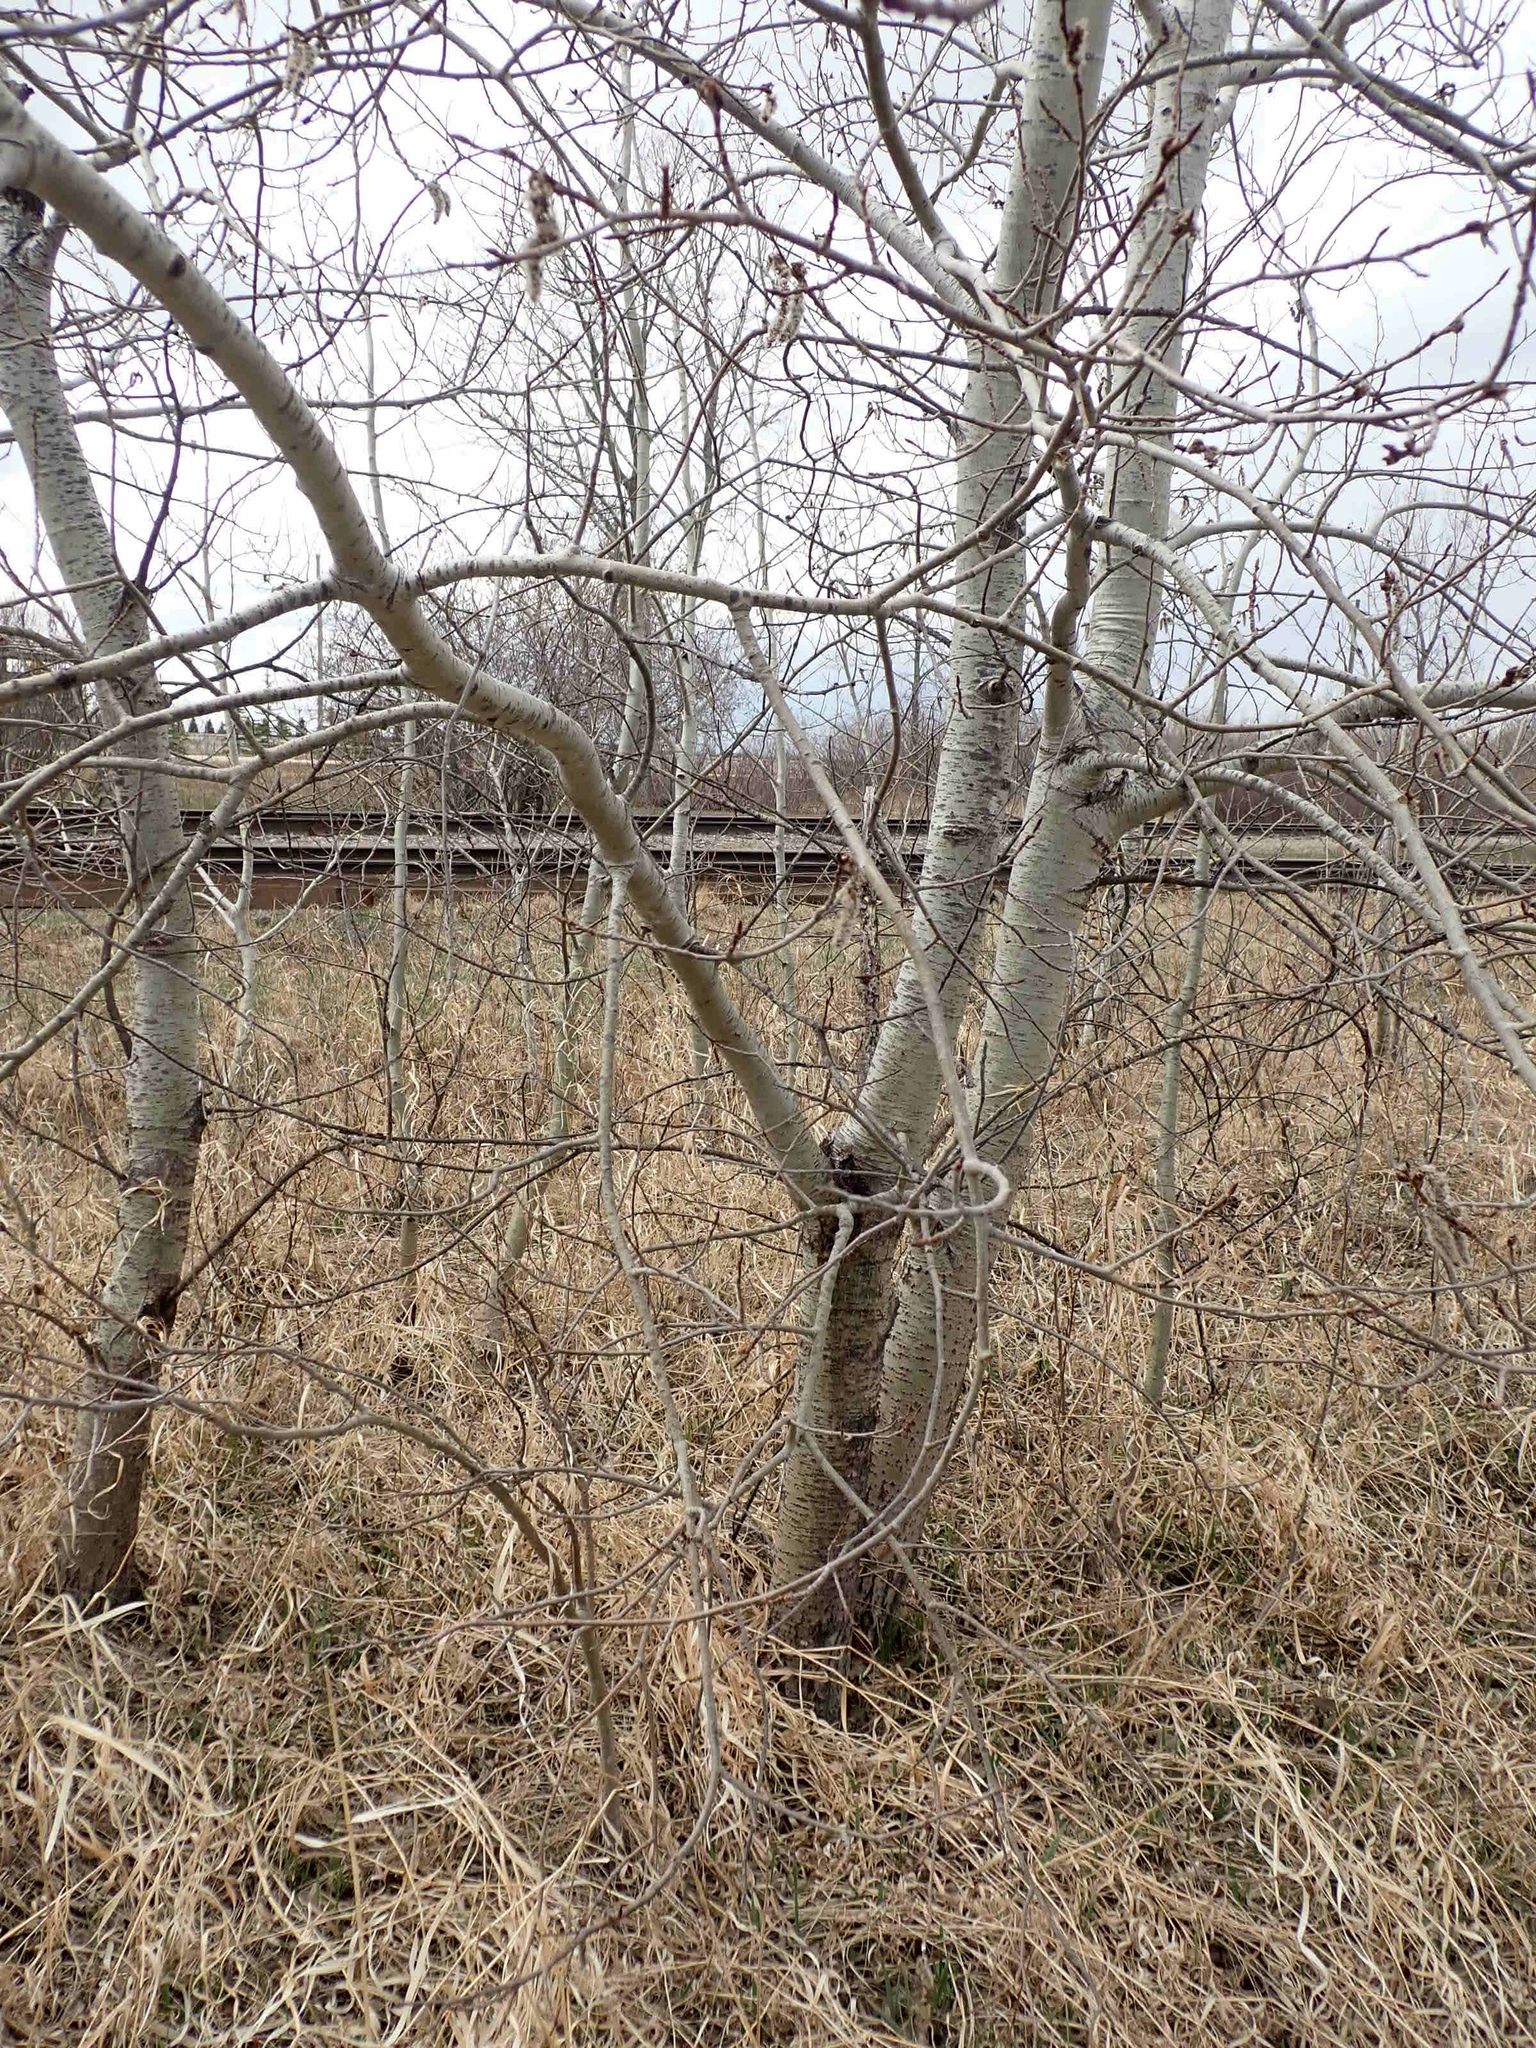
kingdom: Plantae
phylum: Tracheophyta
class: Magnoliopsida
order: Malpighiales
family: Salicaceae
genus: Populus
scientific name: Populus tremuloides
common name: Quaking aspen
